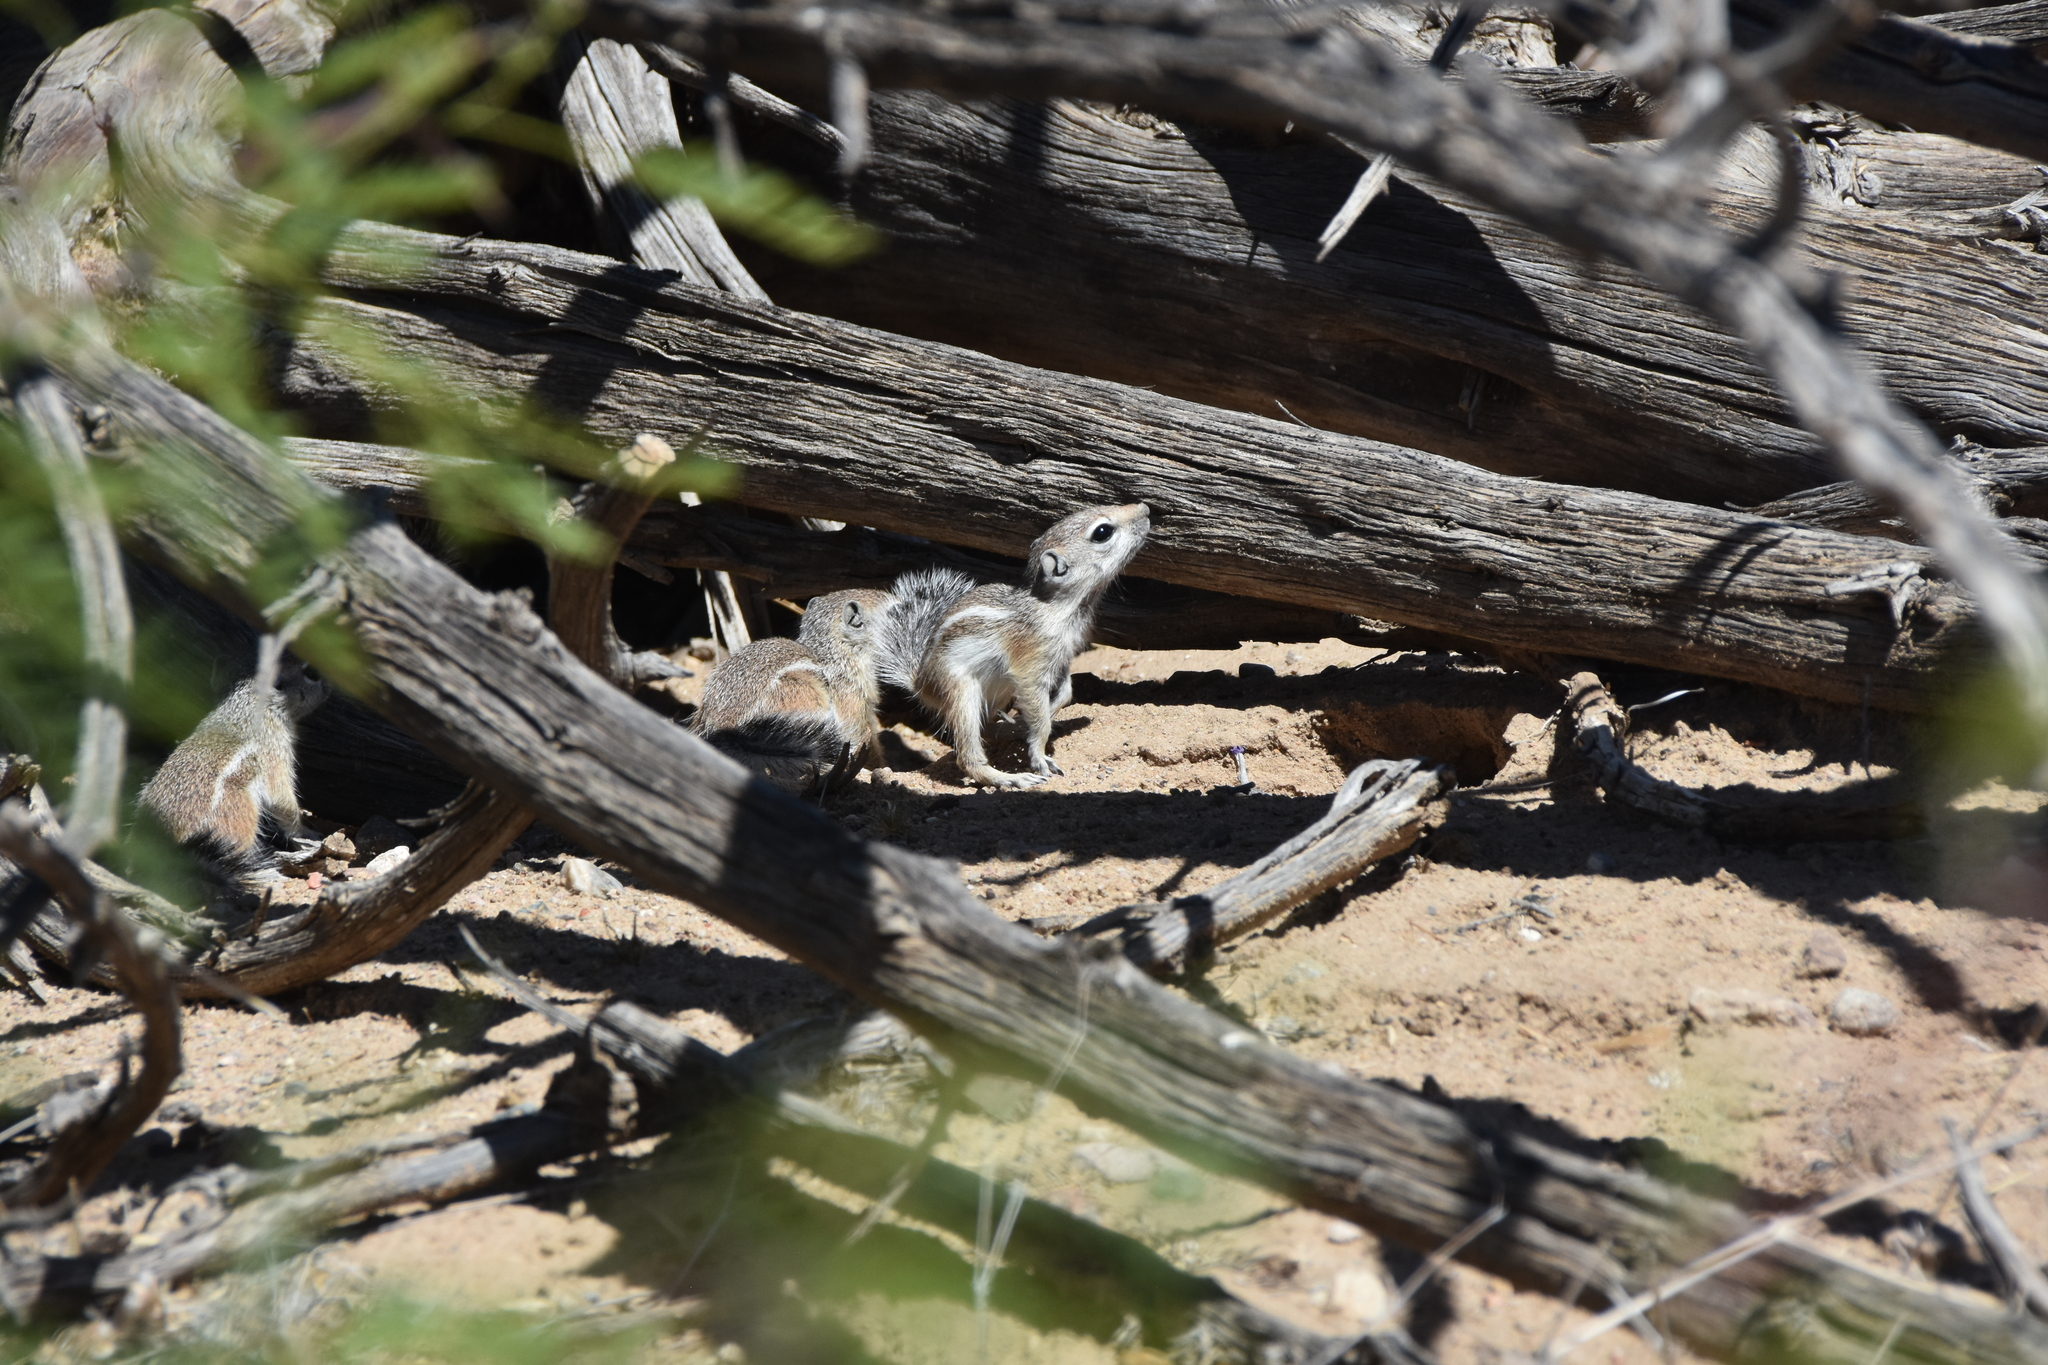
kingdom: Animalia
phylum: Chordata
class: Mammalia
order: Rodentia
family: Sciuridae
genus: Ammospermophilus
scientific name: Ammospermophilus leucurus
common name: White-tailed antelope squirrel
